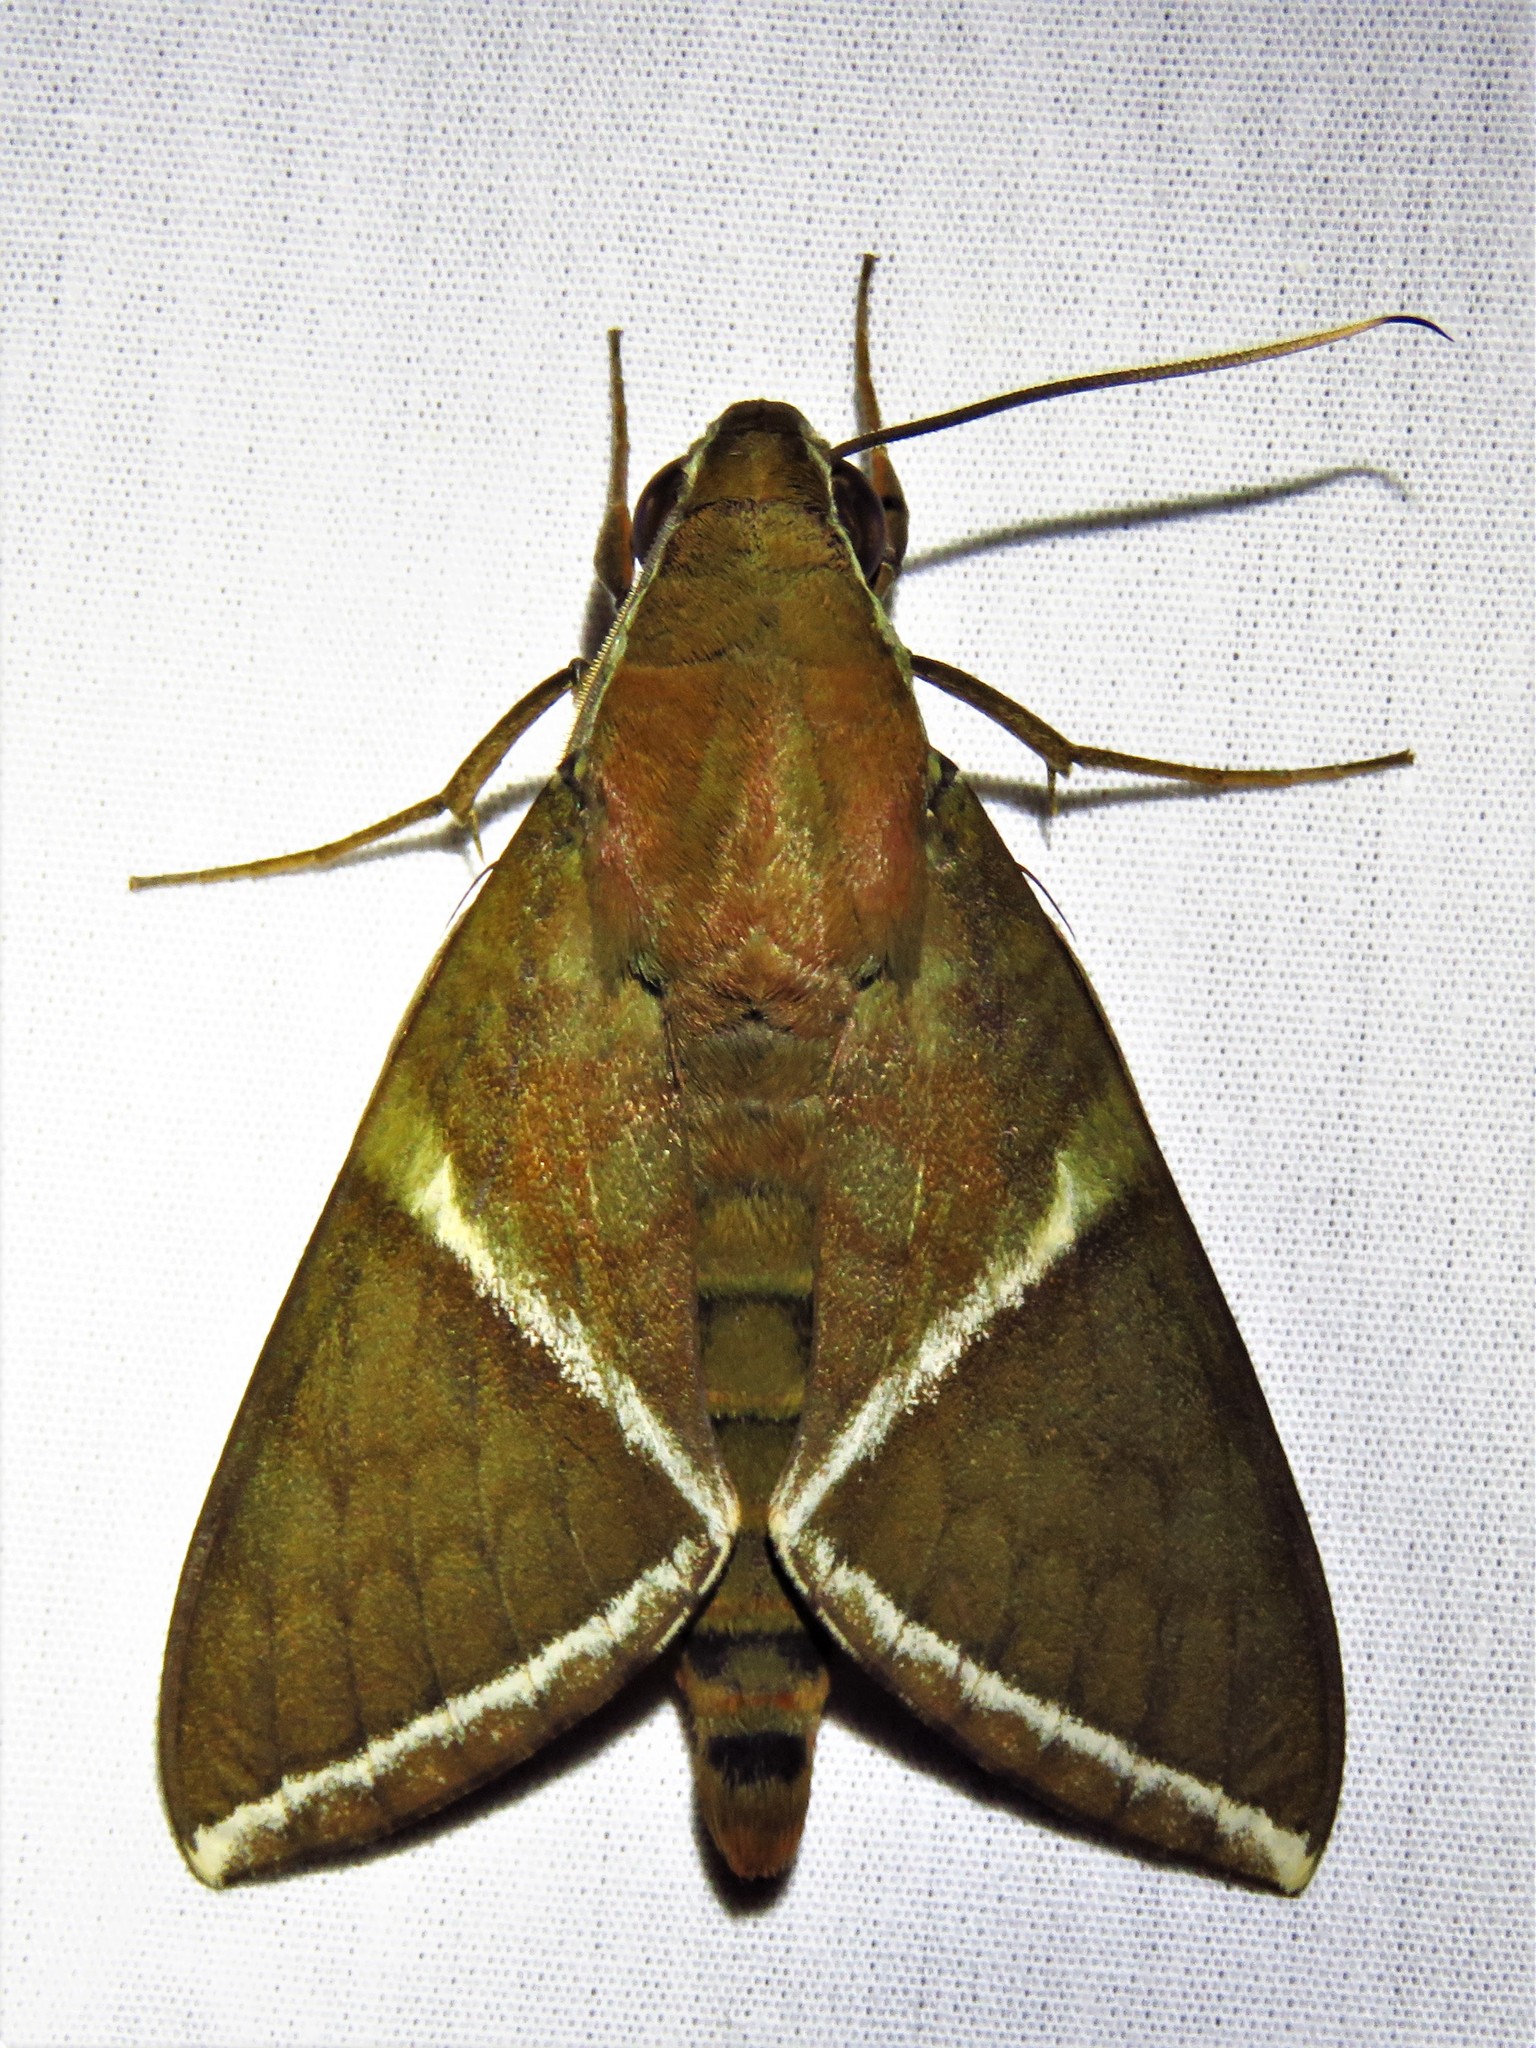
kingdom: Animalia
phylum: Arthropoda
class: Insecta
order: Lepidoptera
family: Sphingidae
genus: Nephele
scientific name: Nephele rectangulata
